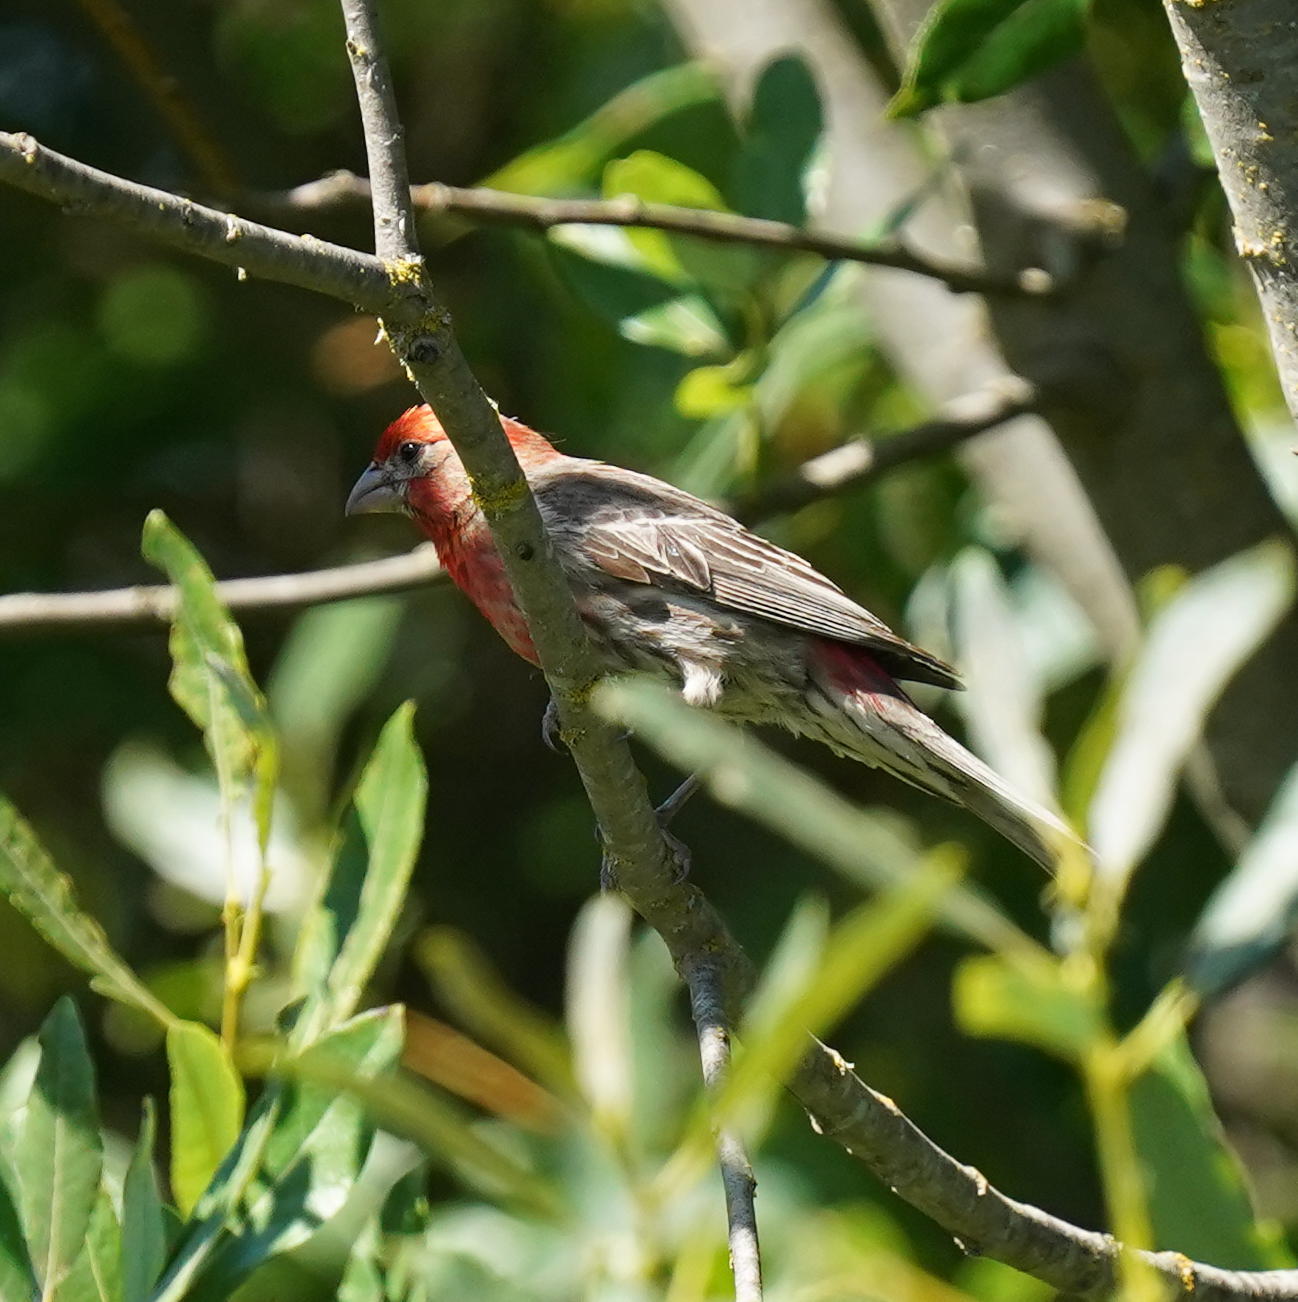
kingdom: Animalia
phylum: Chordata
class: Aves
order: Passeriformes
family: Fringillidae
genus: Haemorhous
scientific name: Haemorhous mexicanus
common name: House finch
